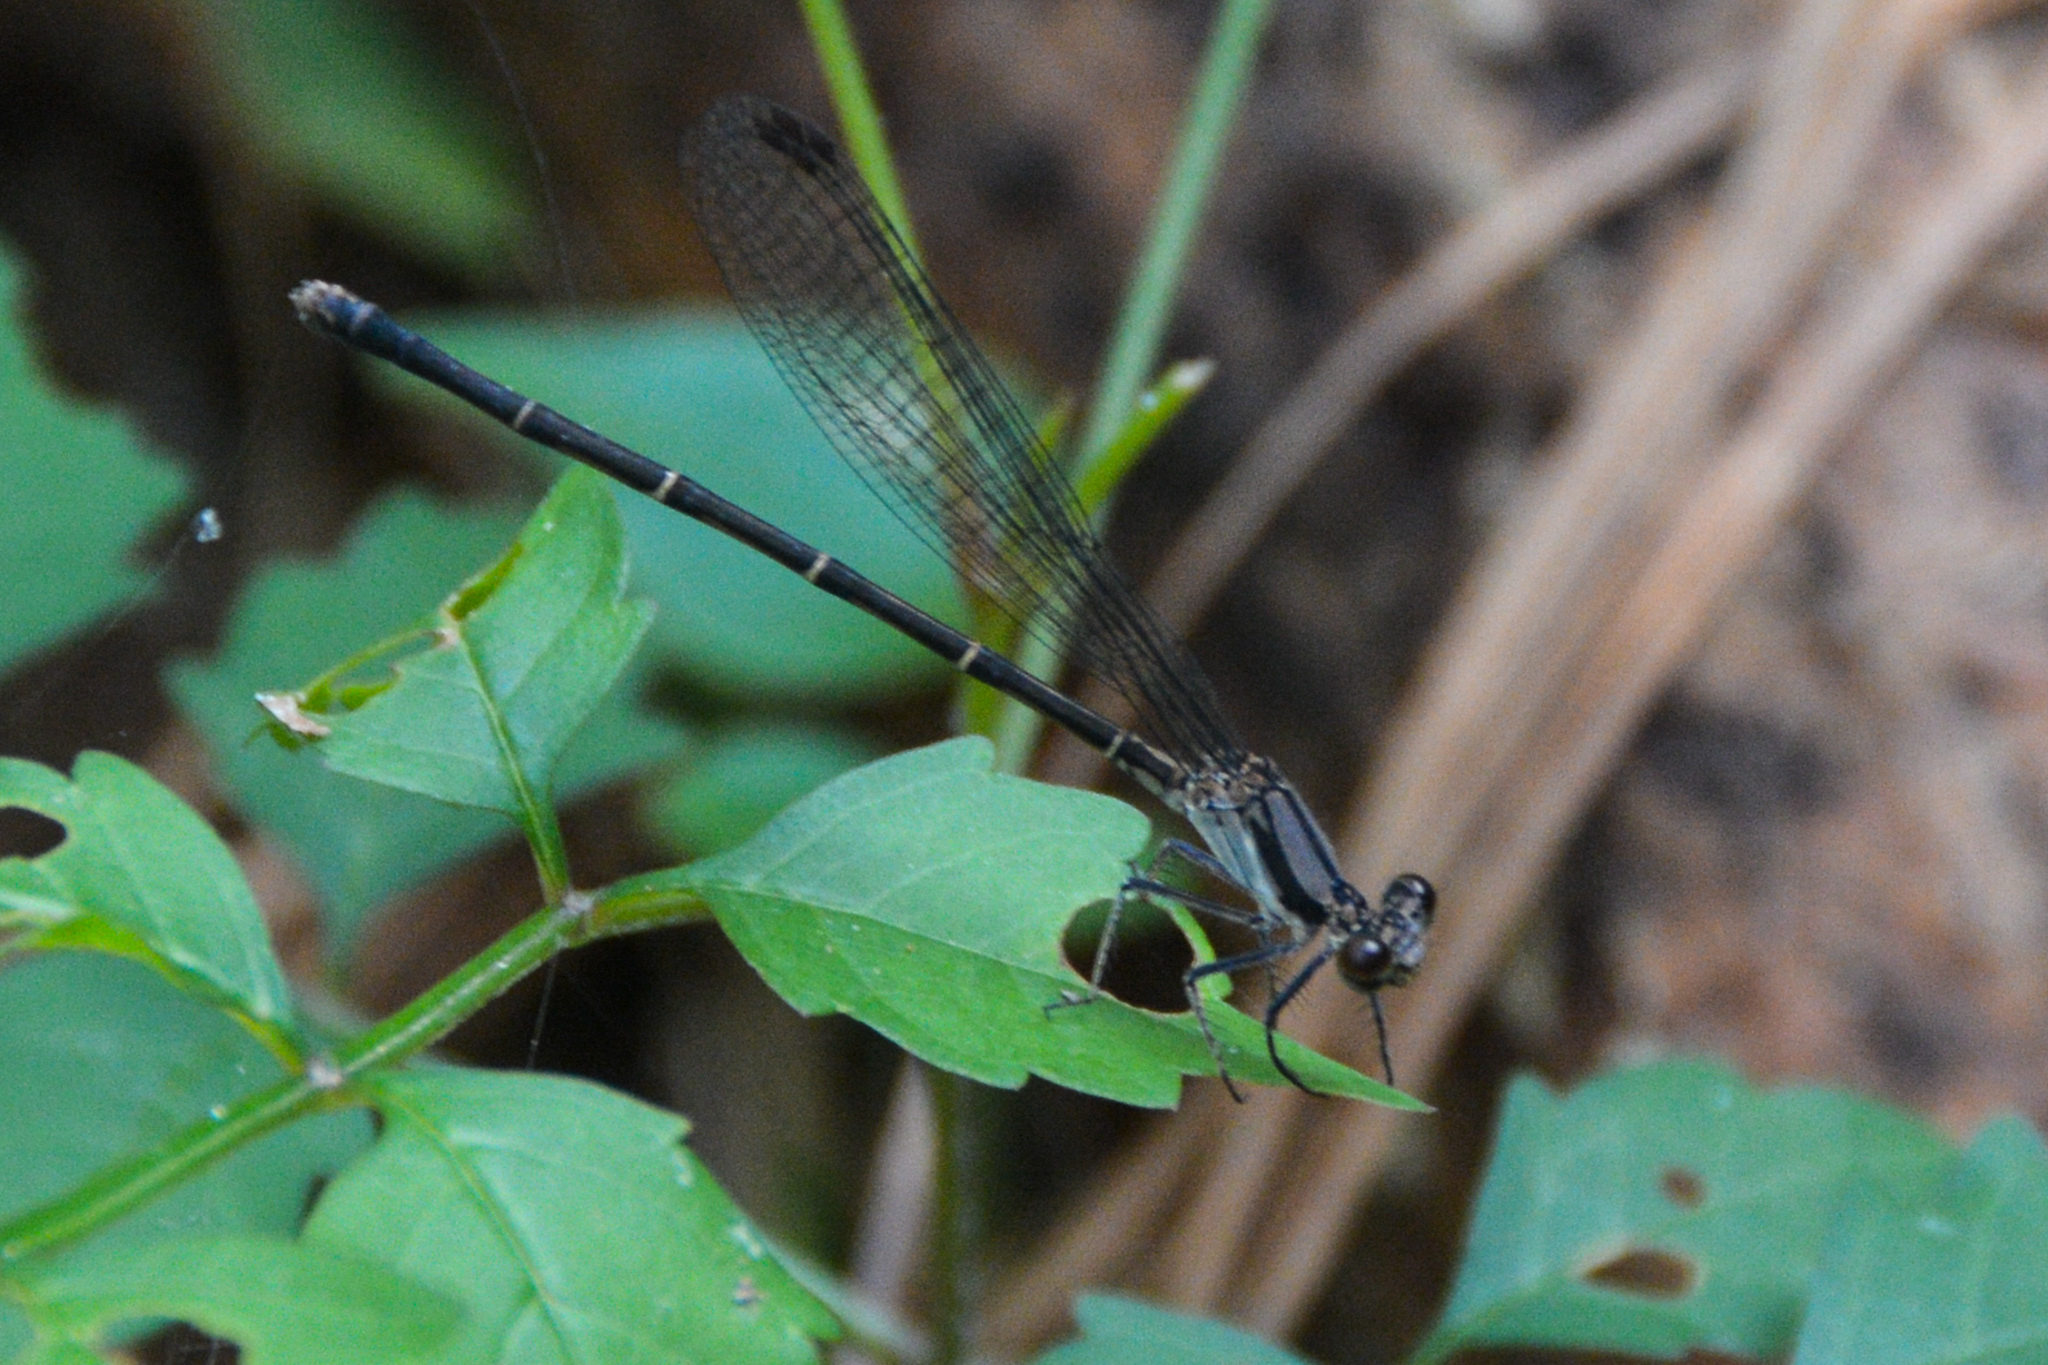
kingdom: Animalia
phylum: Arthropoda
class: Insecta
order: Odonata
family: Coenagrionidae
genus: Argia
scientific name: Argia tibialis
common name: Blue-tipped dancer
